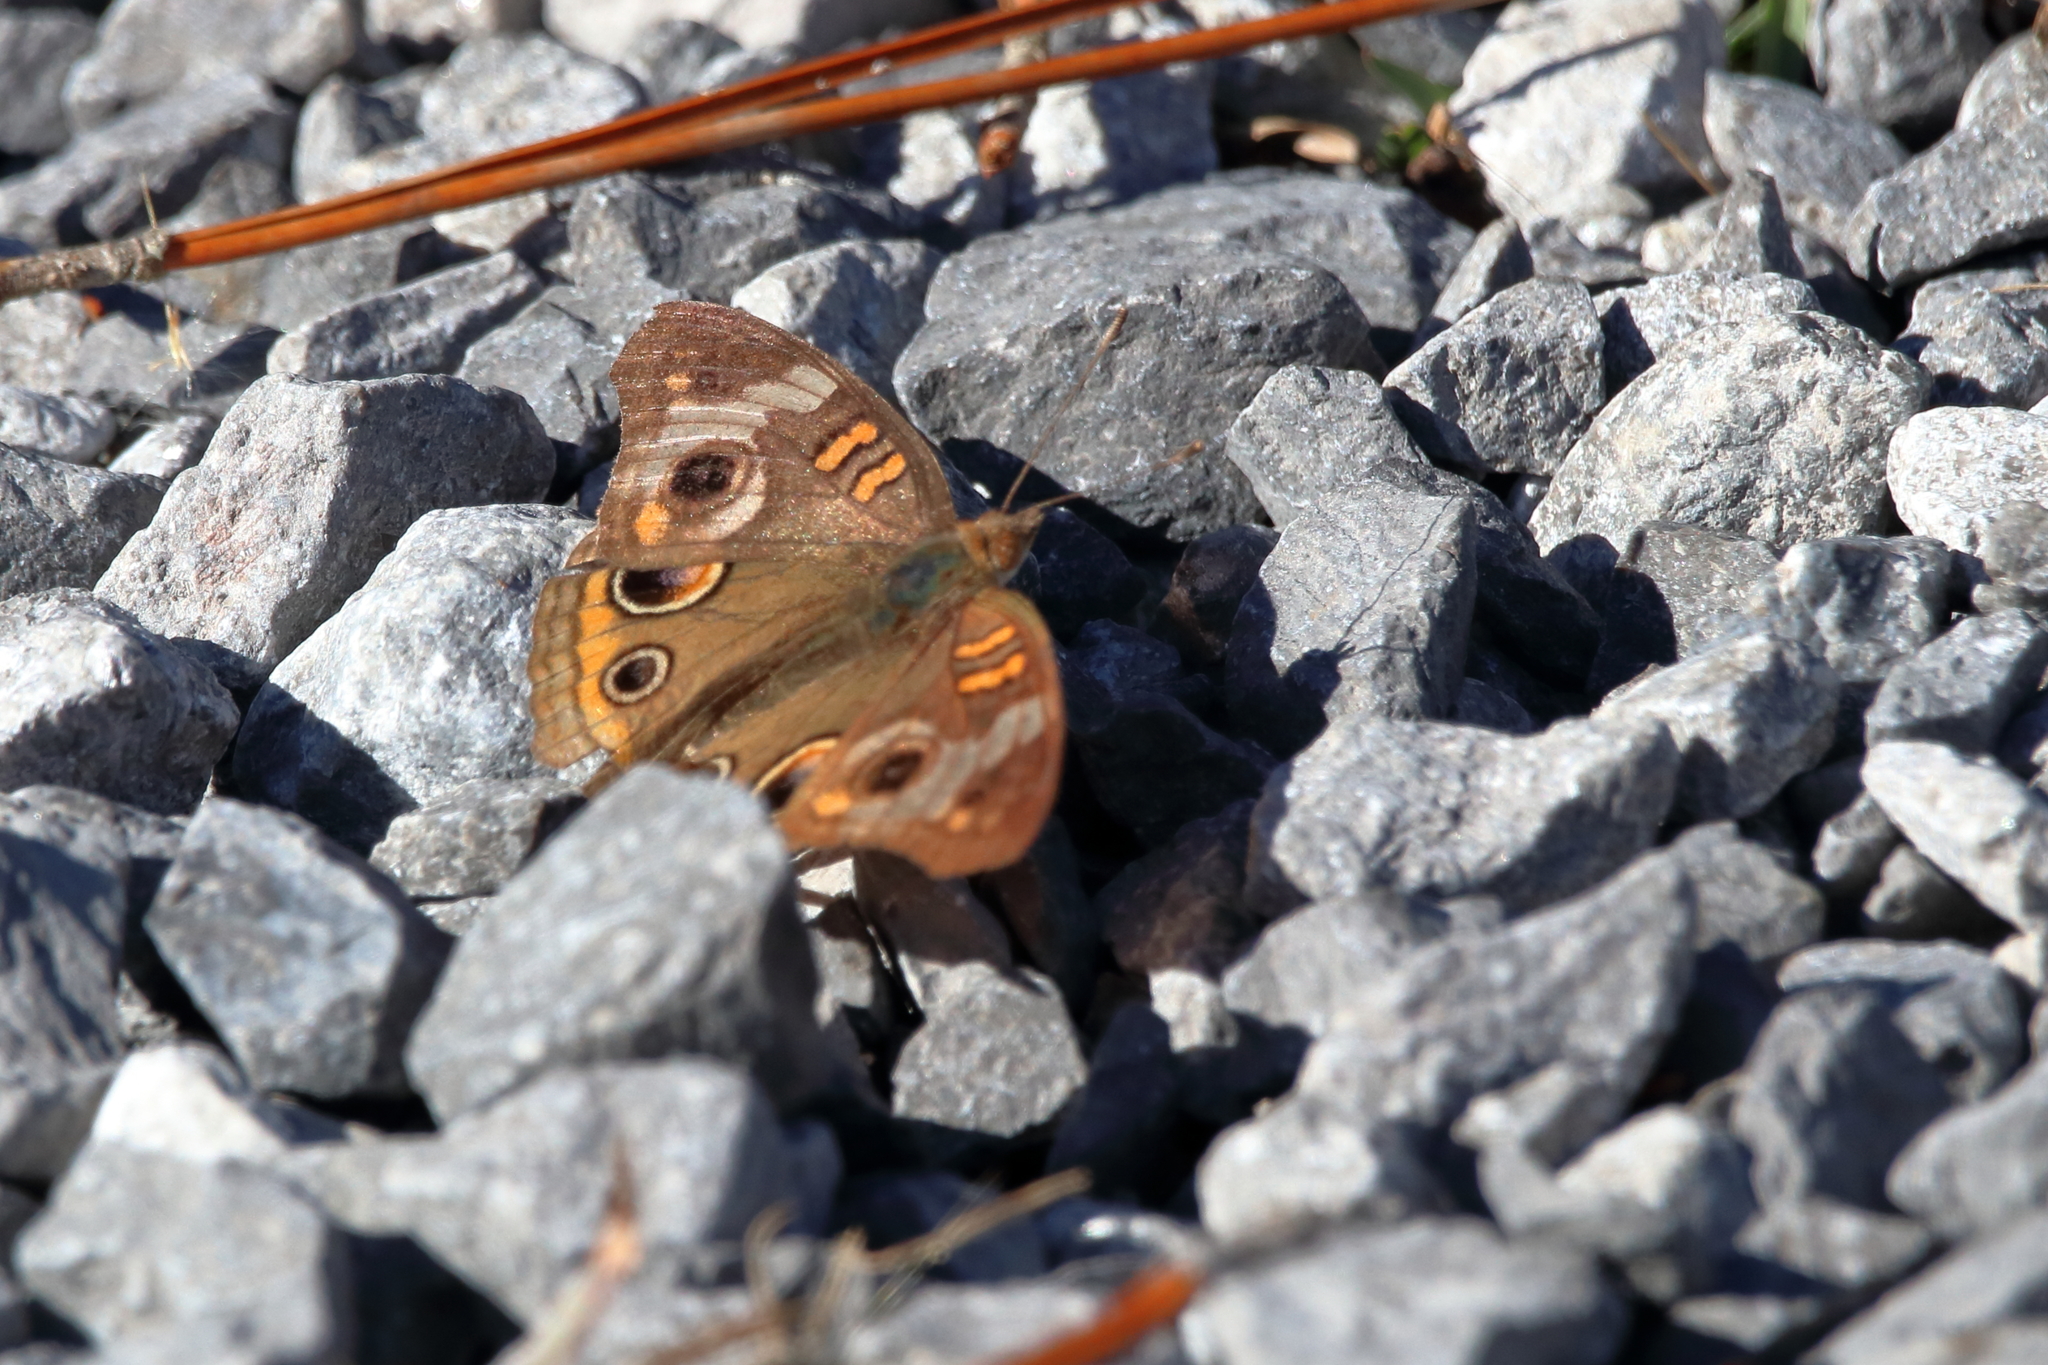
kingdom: Animalia
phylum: Arthropoda
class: Insecta
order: Lepidoptera
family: Nymphalidae
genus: Junonia
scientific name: Junonia coenia
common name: Common buckeye
